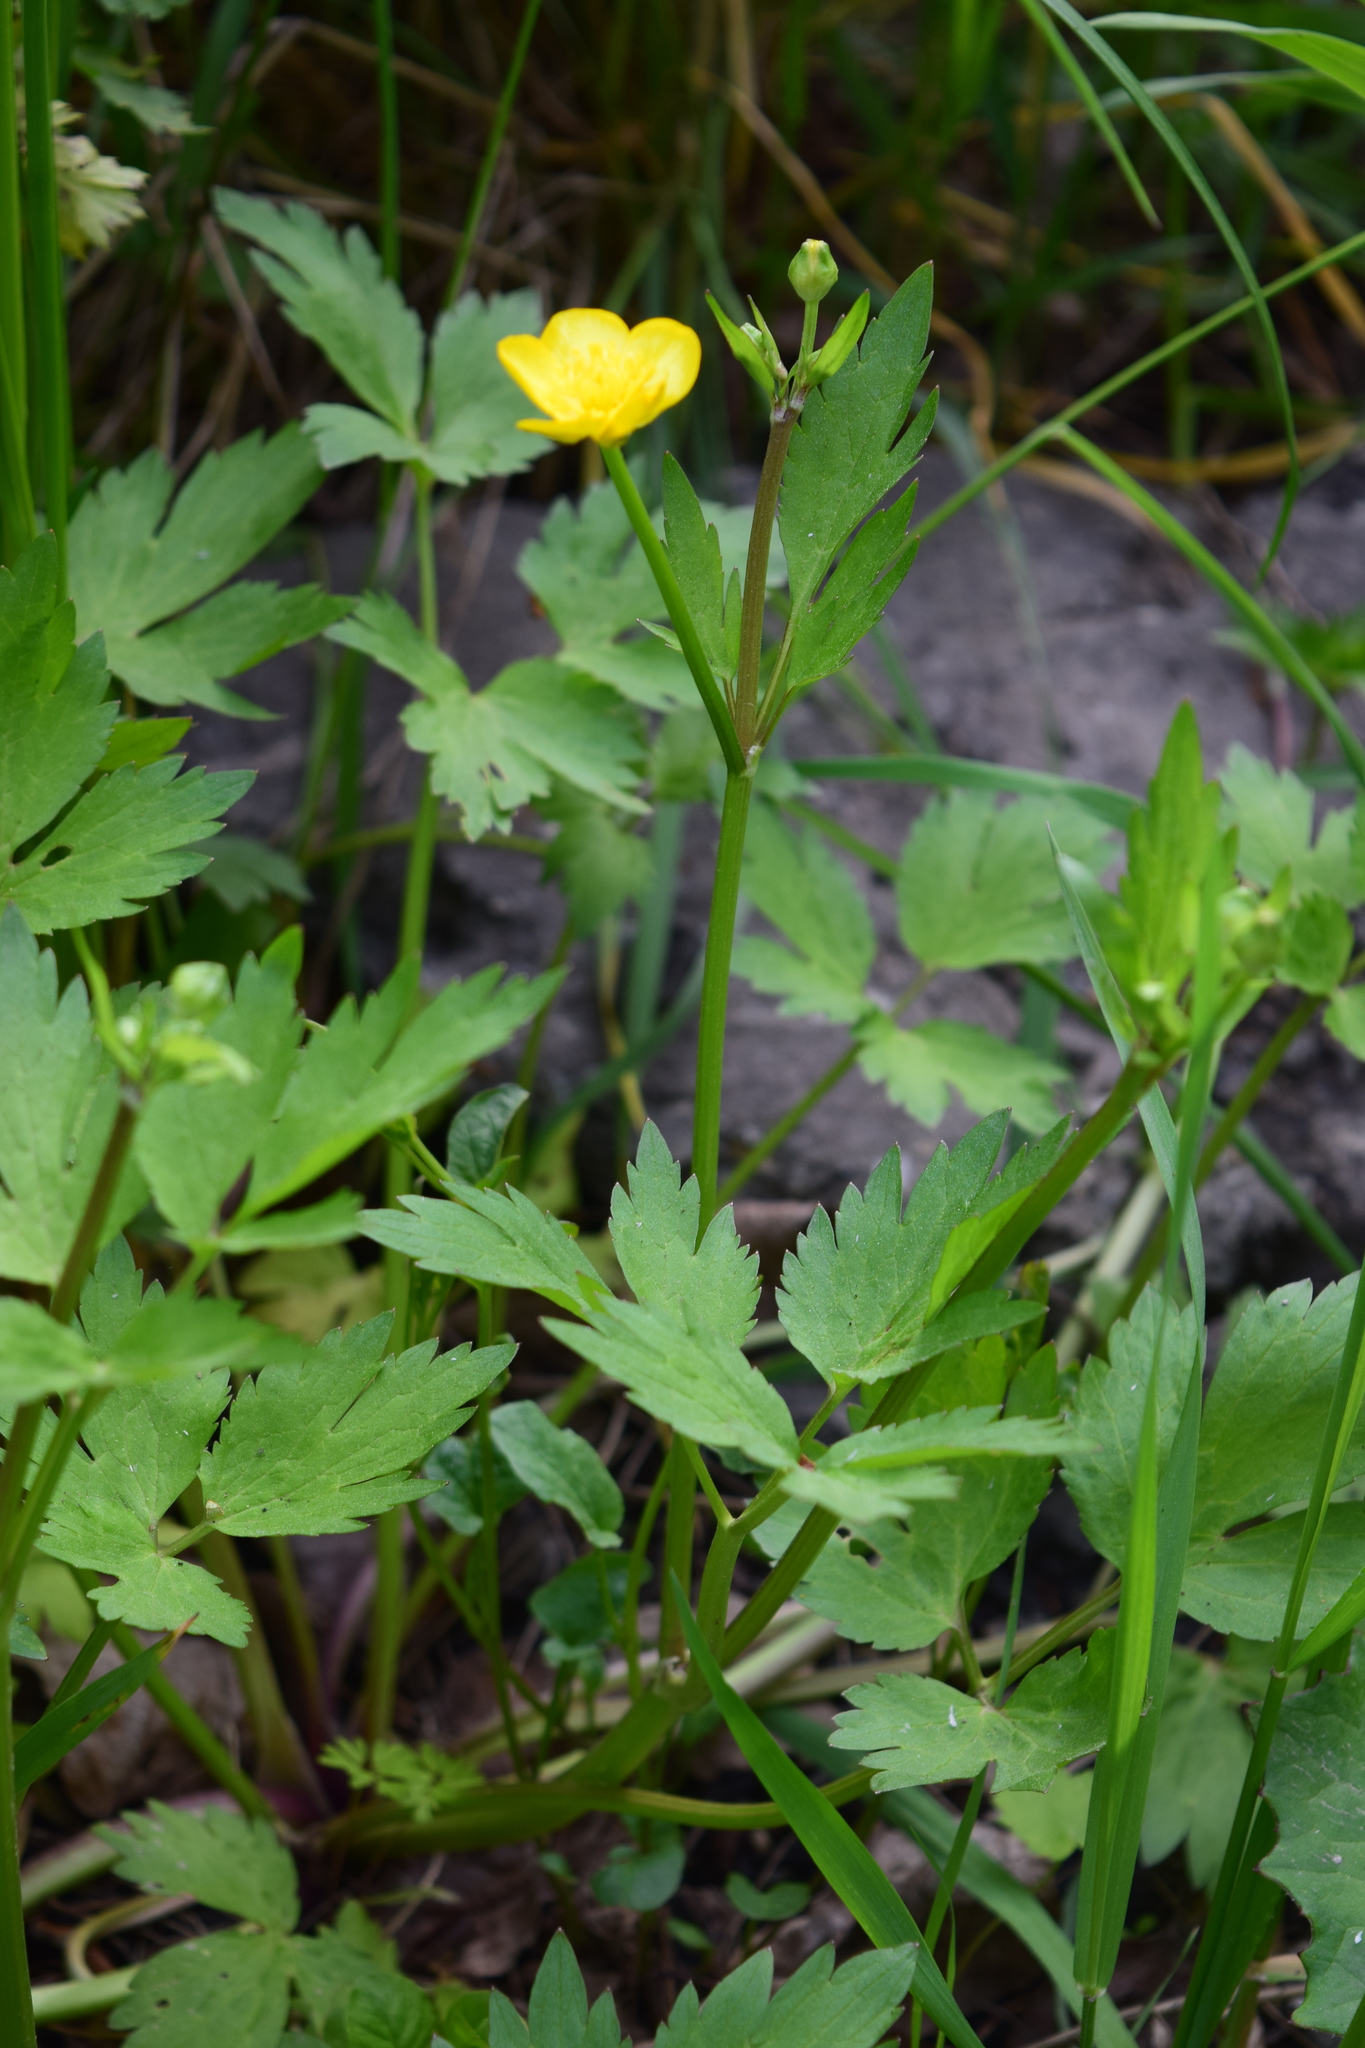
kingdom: Plantae
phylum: Tracheophyta
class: Magnoliopsida
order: Ranunculales
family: Ranunculaceae
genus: Ranunculus
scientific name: Ranunculus repens
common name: Creeping buttercup
